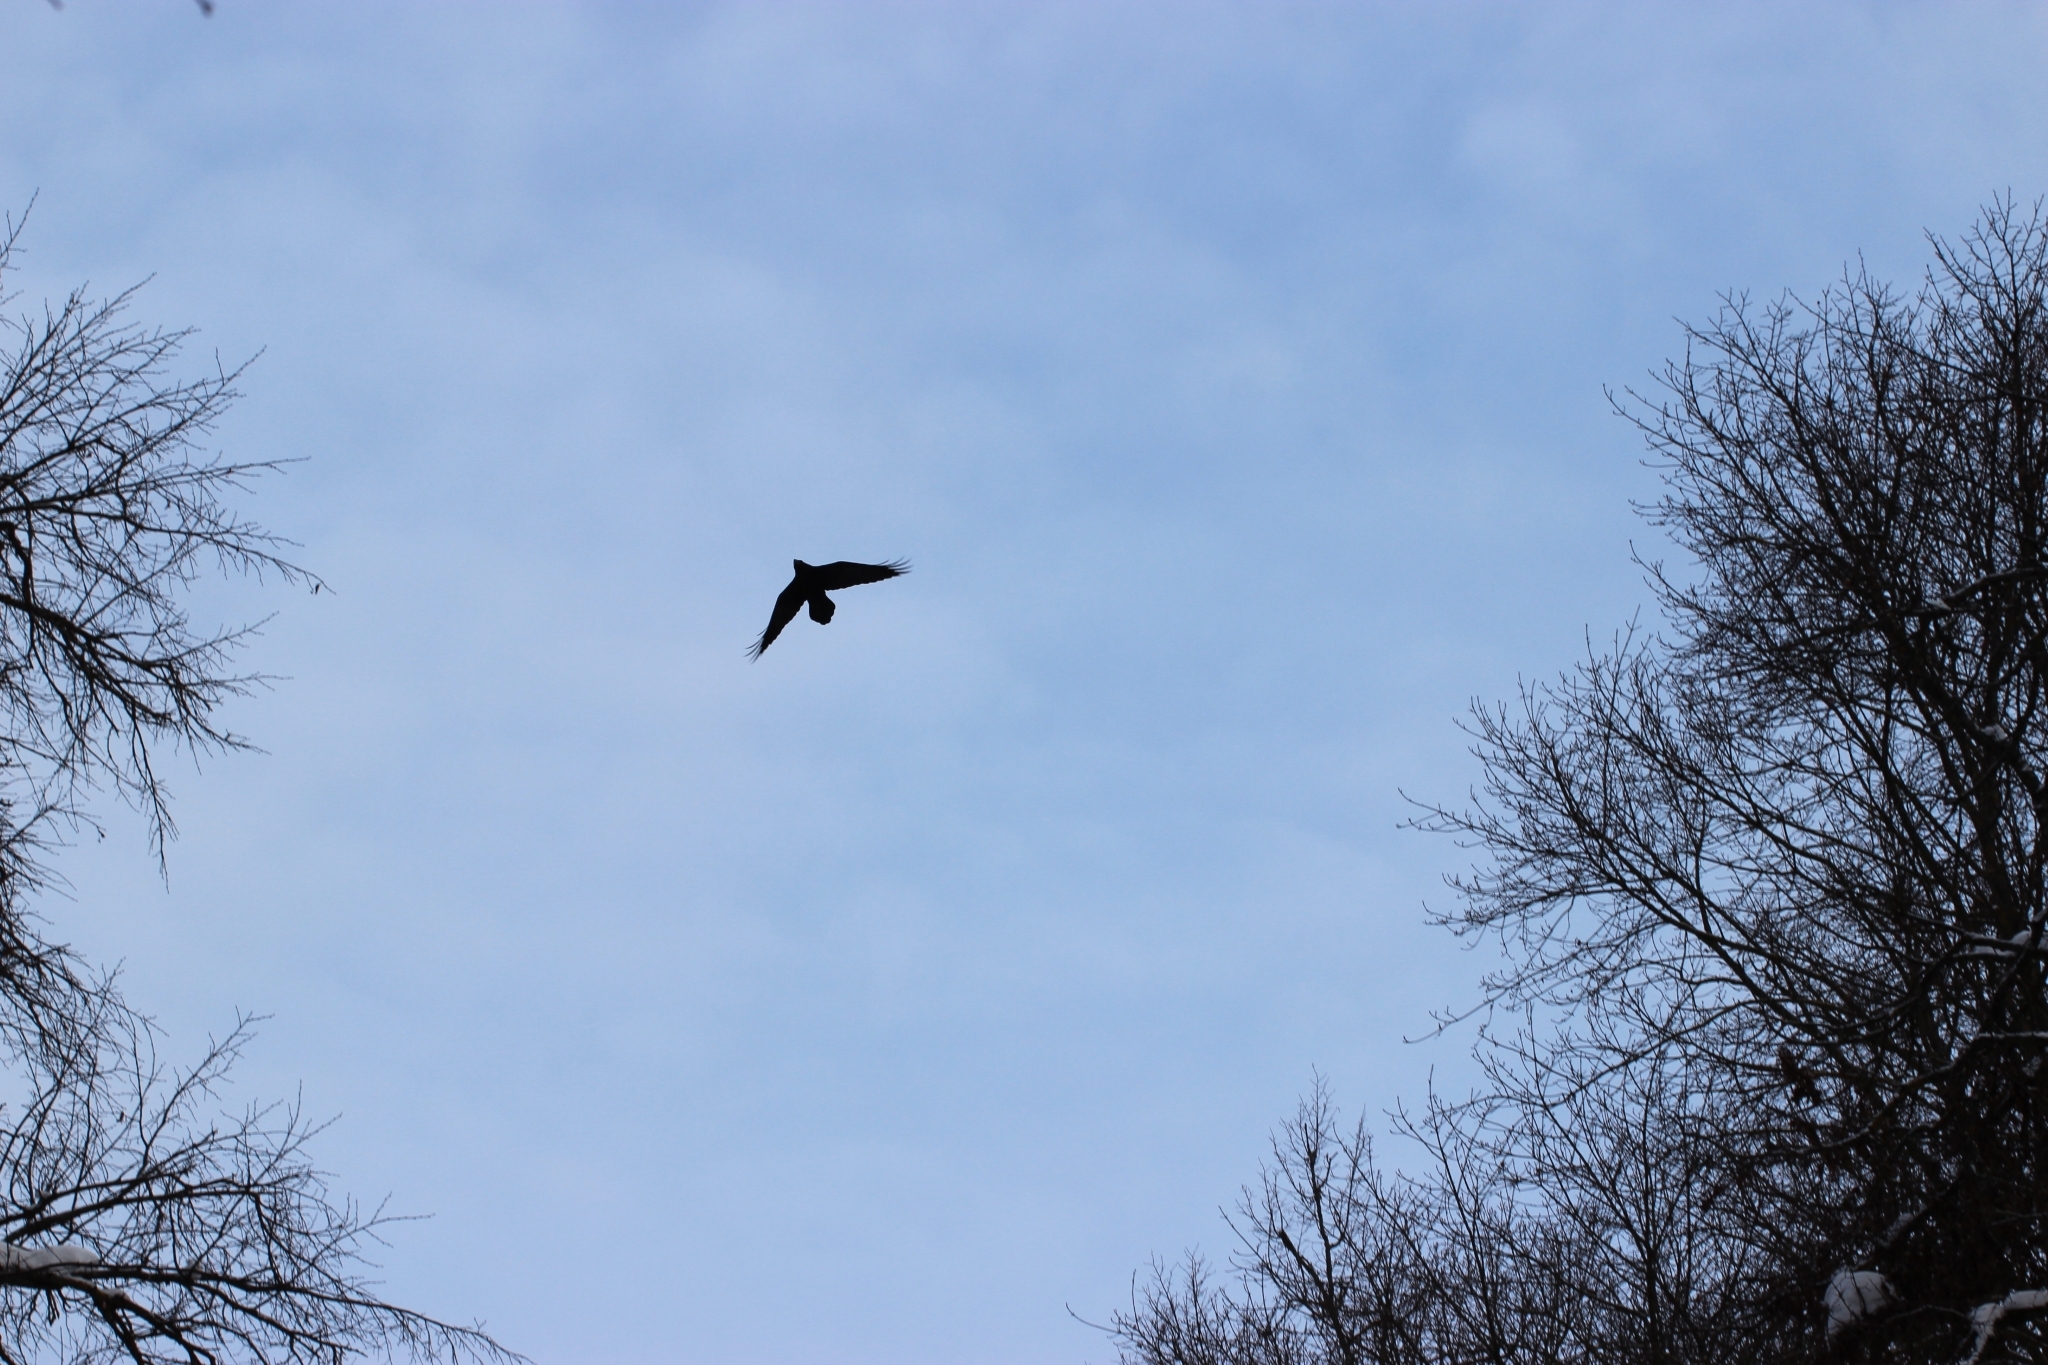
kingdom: Animalia
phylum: Chordata
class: Aves
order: Passeriformes
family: Corvidae
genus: Corvus
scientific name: Corvus corax
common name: Common raven
